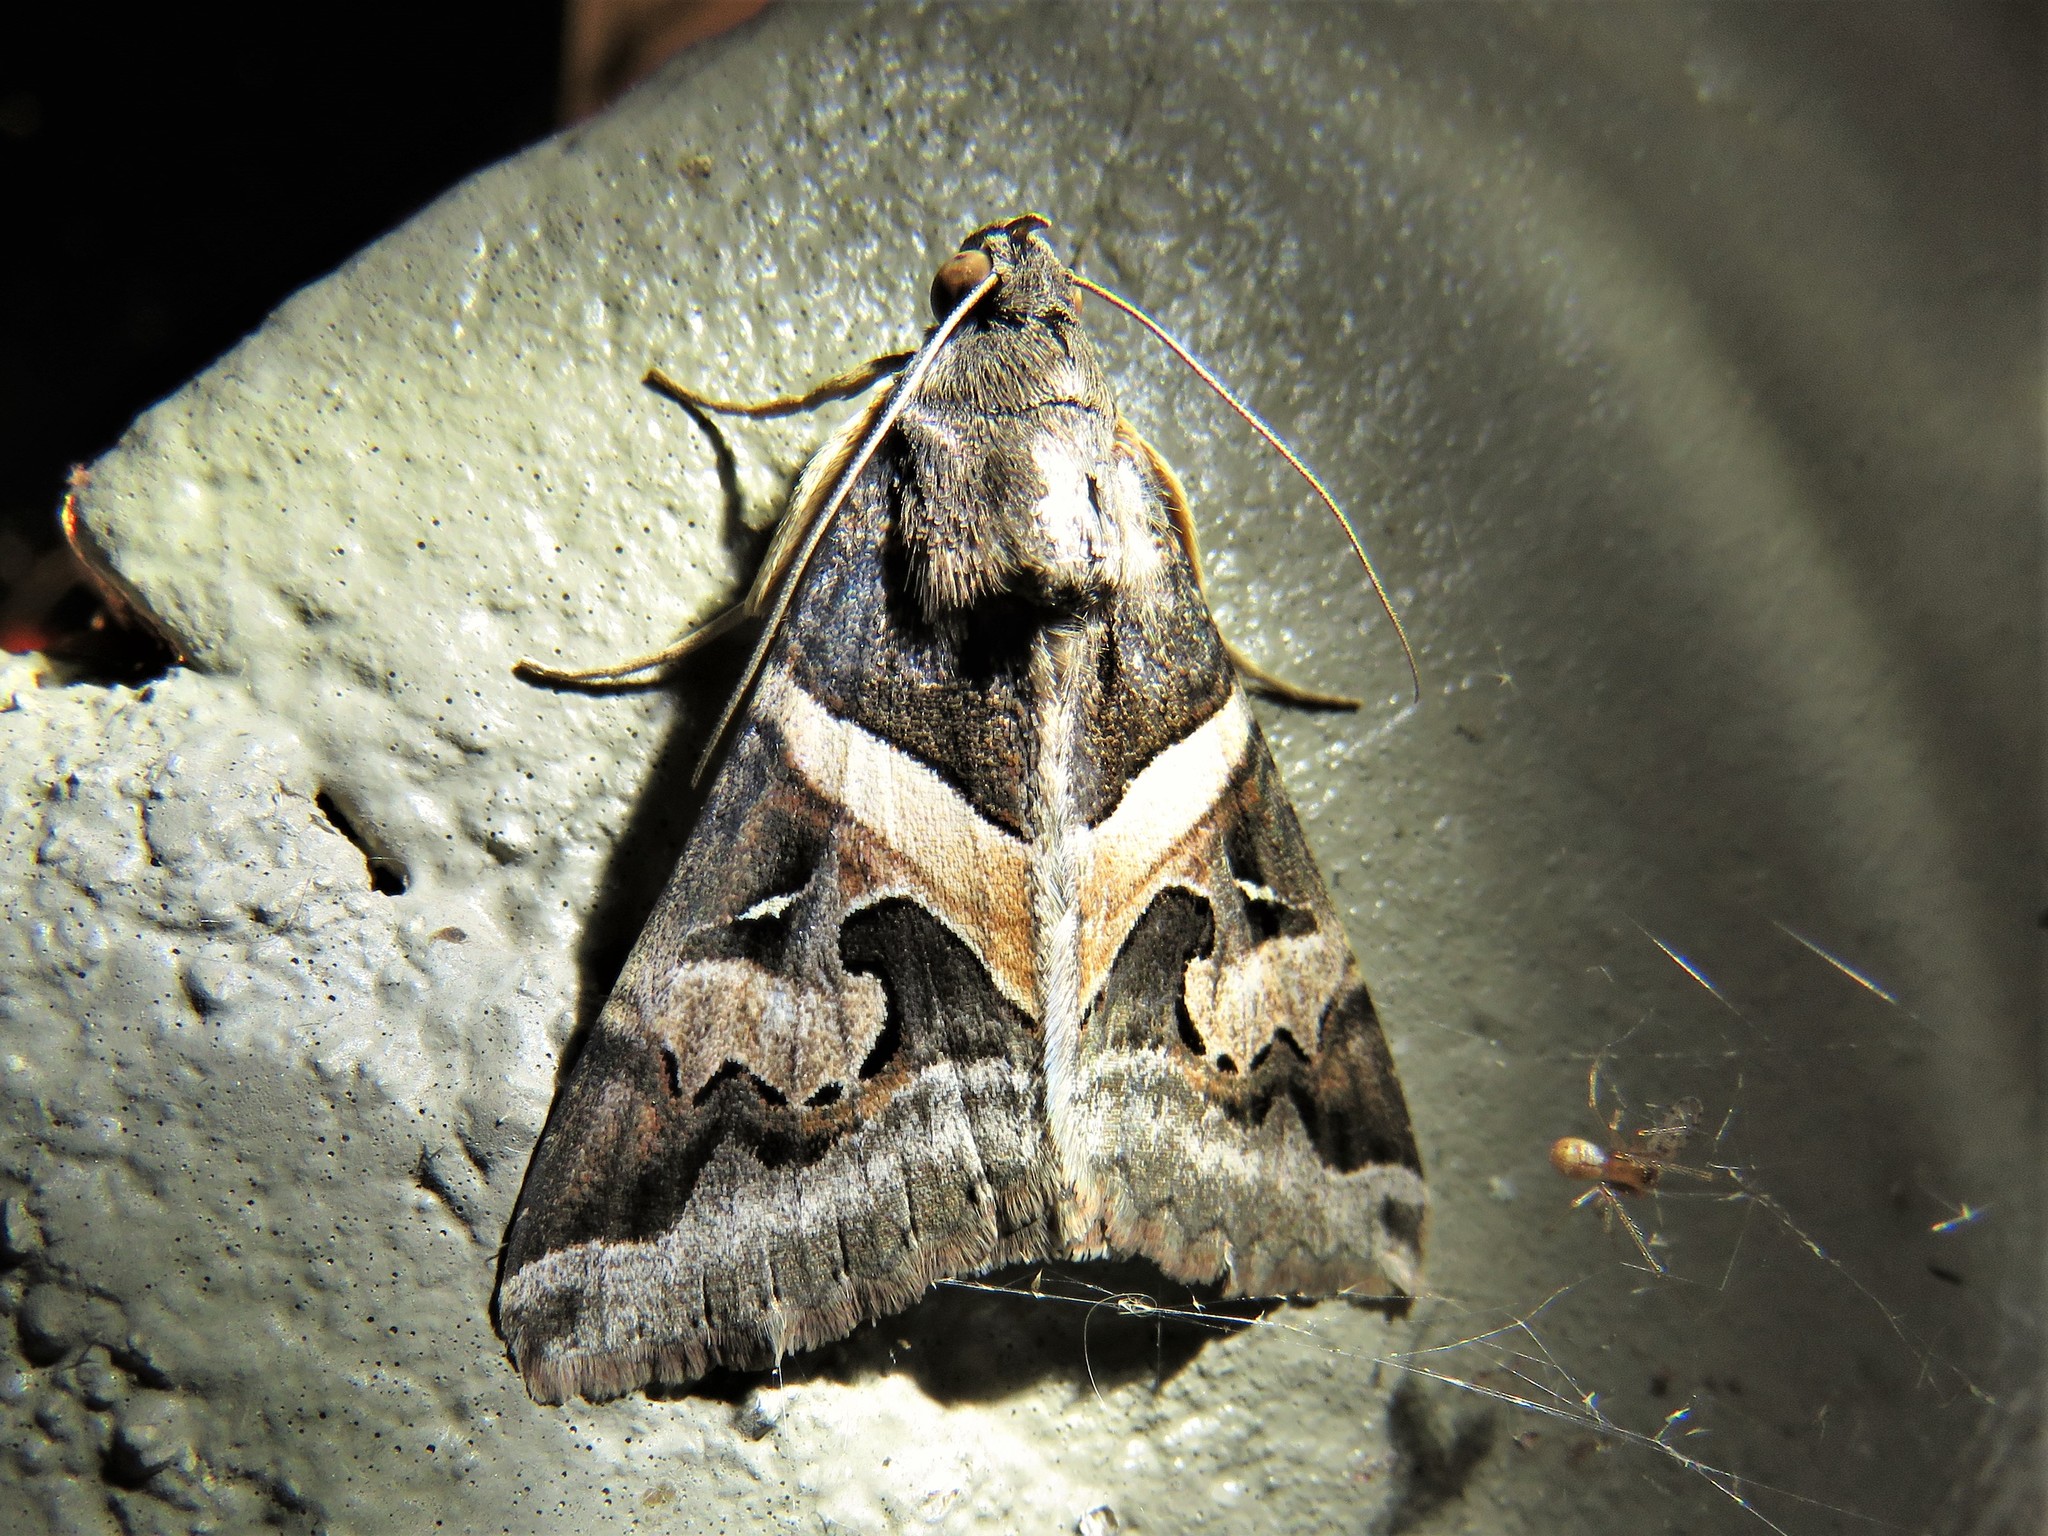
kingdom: Animalia
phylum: Arthropoda
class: Insecta
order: Lepidoptera
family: Erebidae
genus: Melipotis
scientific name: Melipotis indomita
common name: Moth
